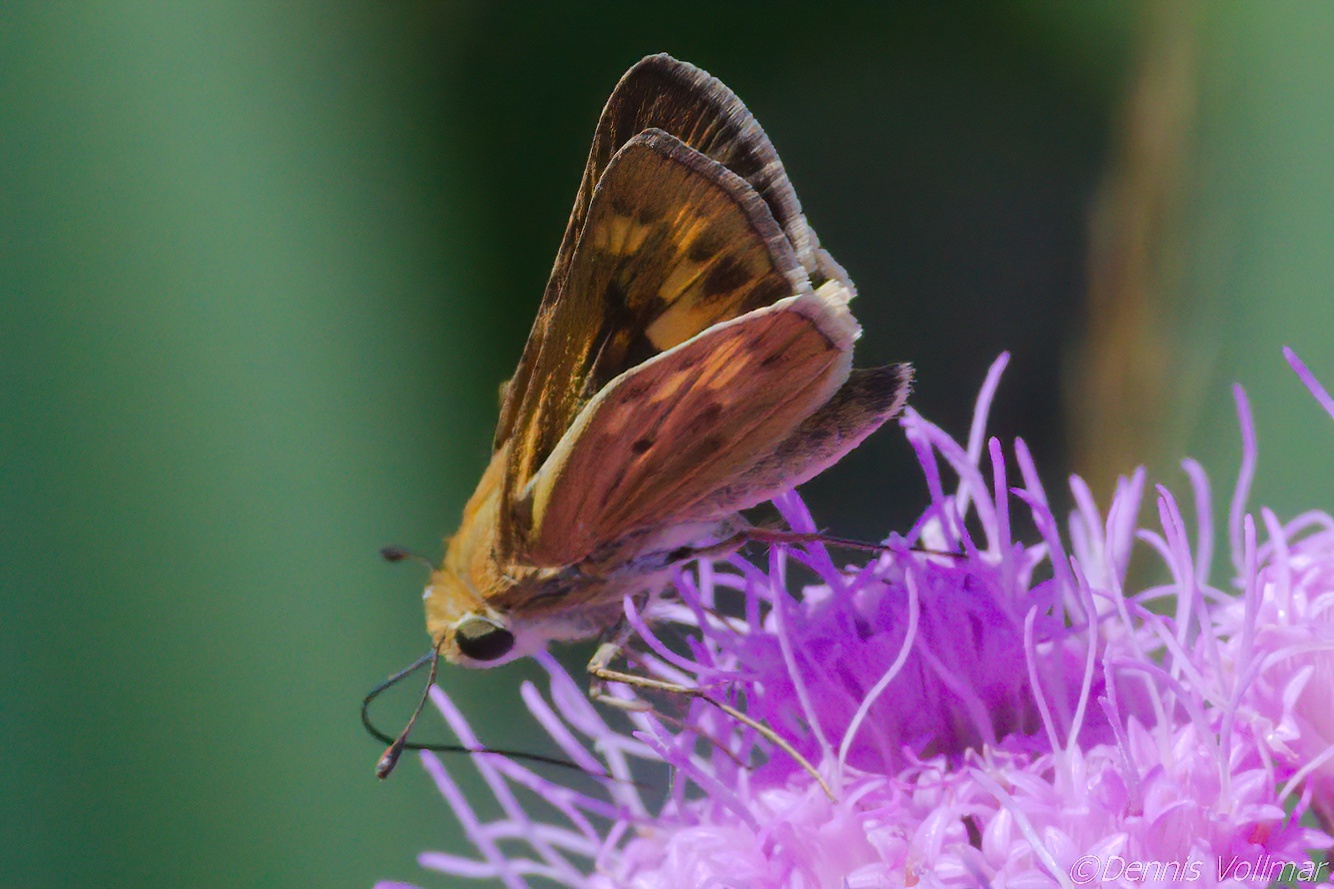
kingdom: Animalia
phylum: Arthropoda
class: Insecta
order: Lepidoptera
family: Hesperiidae
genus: Hylephila
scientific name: Hylephila phyleus
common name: Fiery skipper
